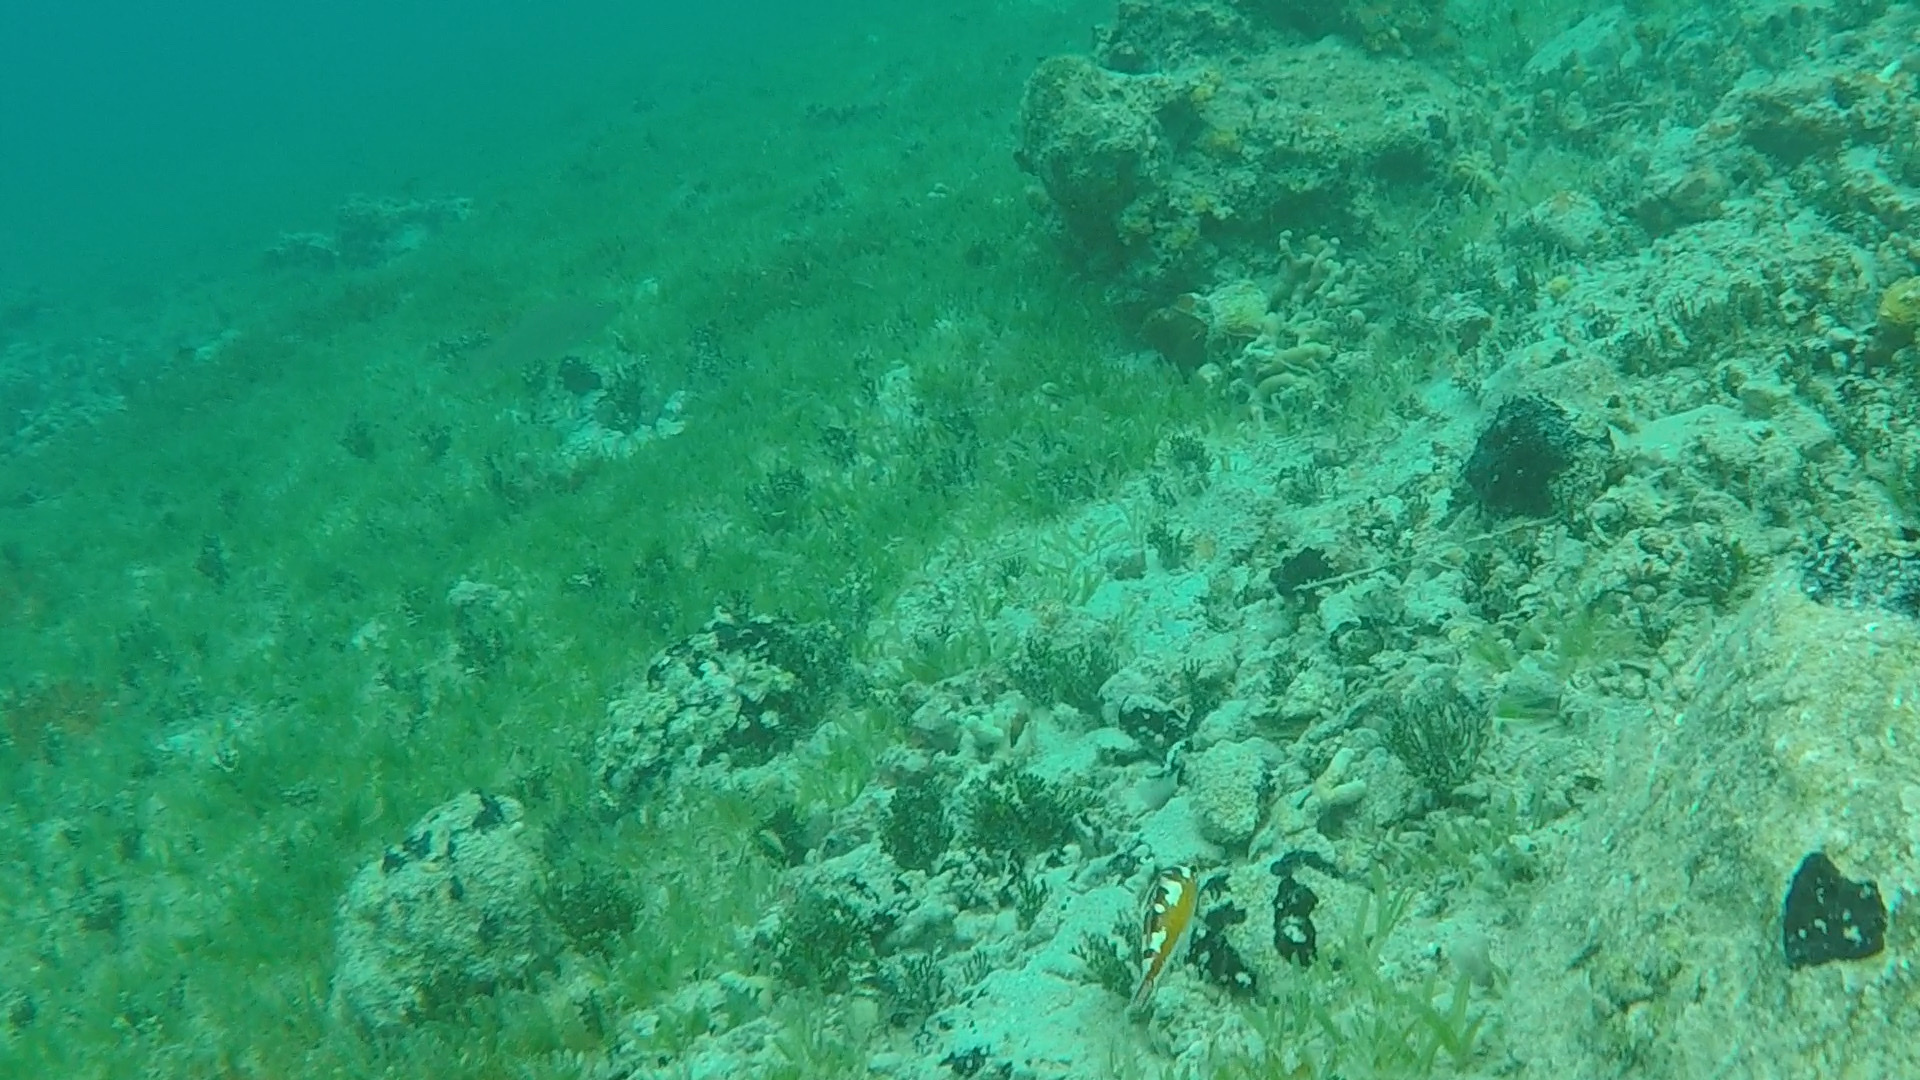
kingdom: Animalia
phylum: Chordata
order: Perciformes
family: Serranidae
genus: Serranus
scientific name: Serranus tabacarius
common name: Tobaccofish
